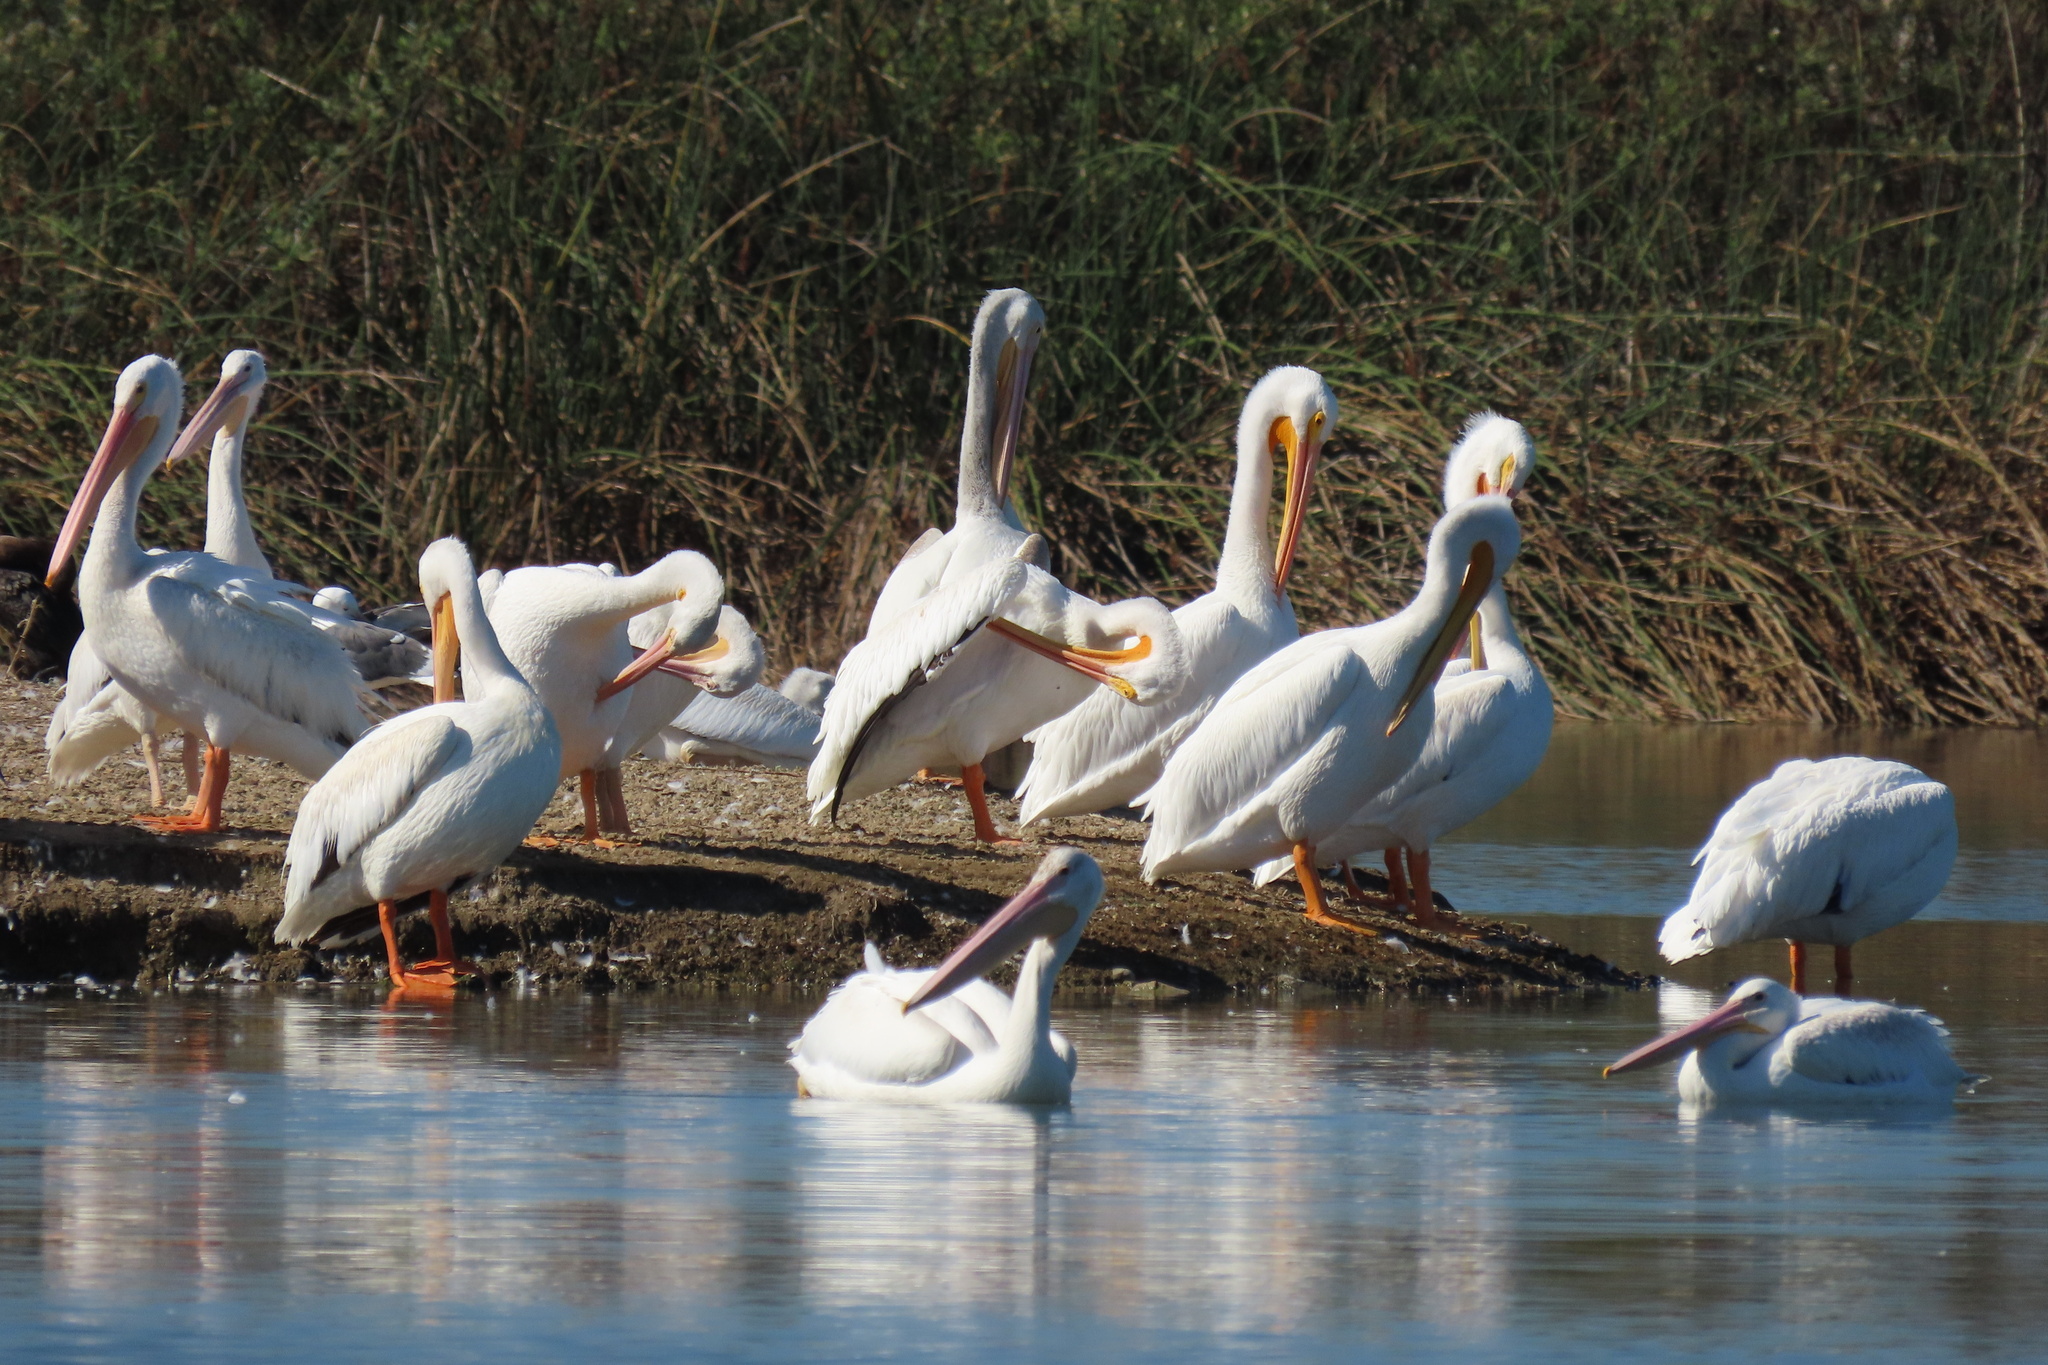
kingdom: Animalia
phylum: Chordata
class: Aves
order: Pelecaniformes
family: Pelecanidae
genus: Pelecanus
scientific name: Pelecanus erythrorhynchos
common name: American white pelican
